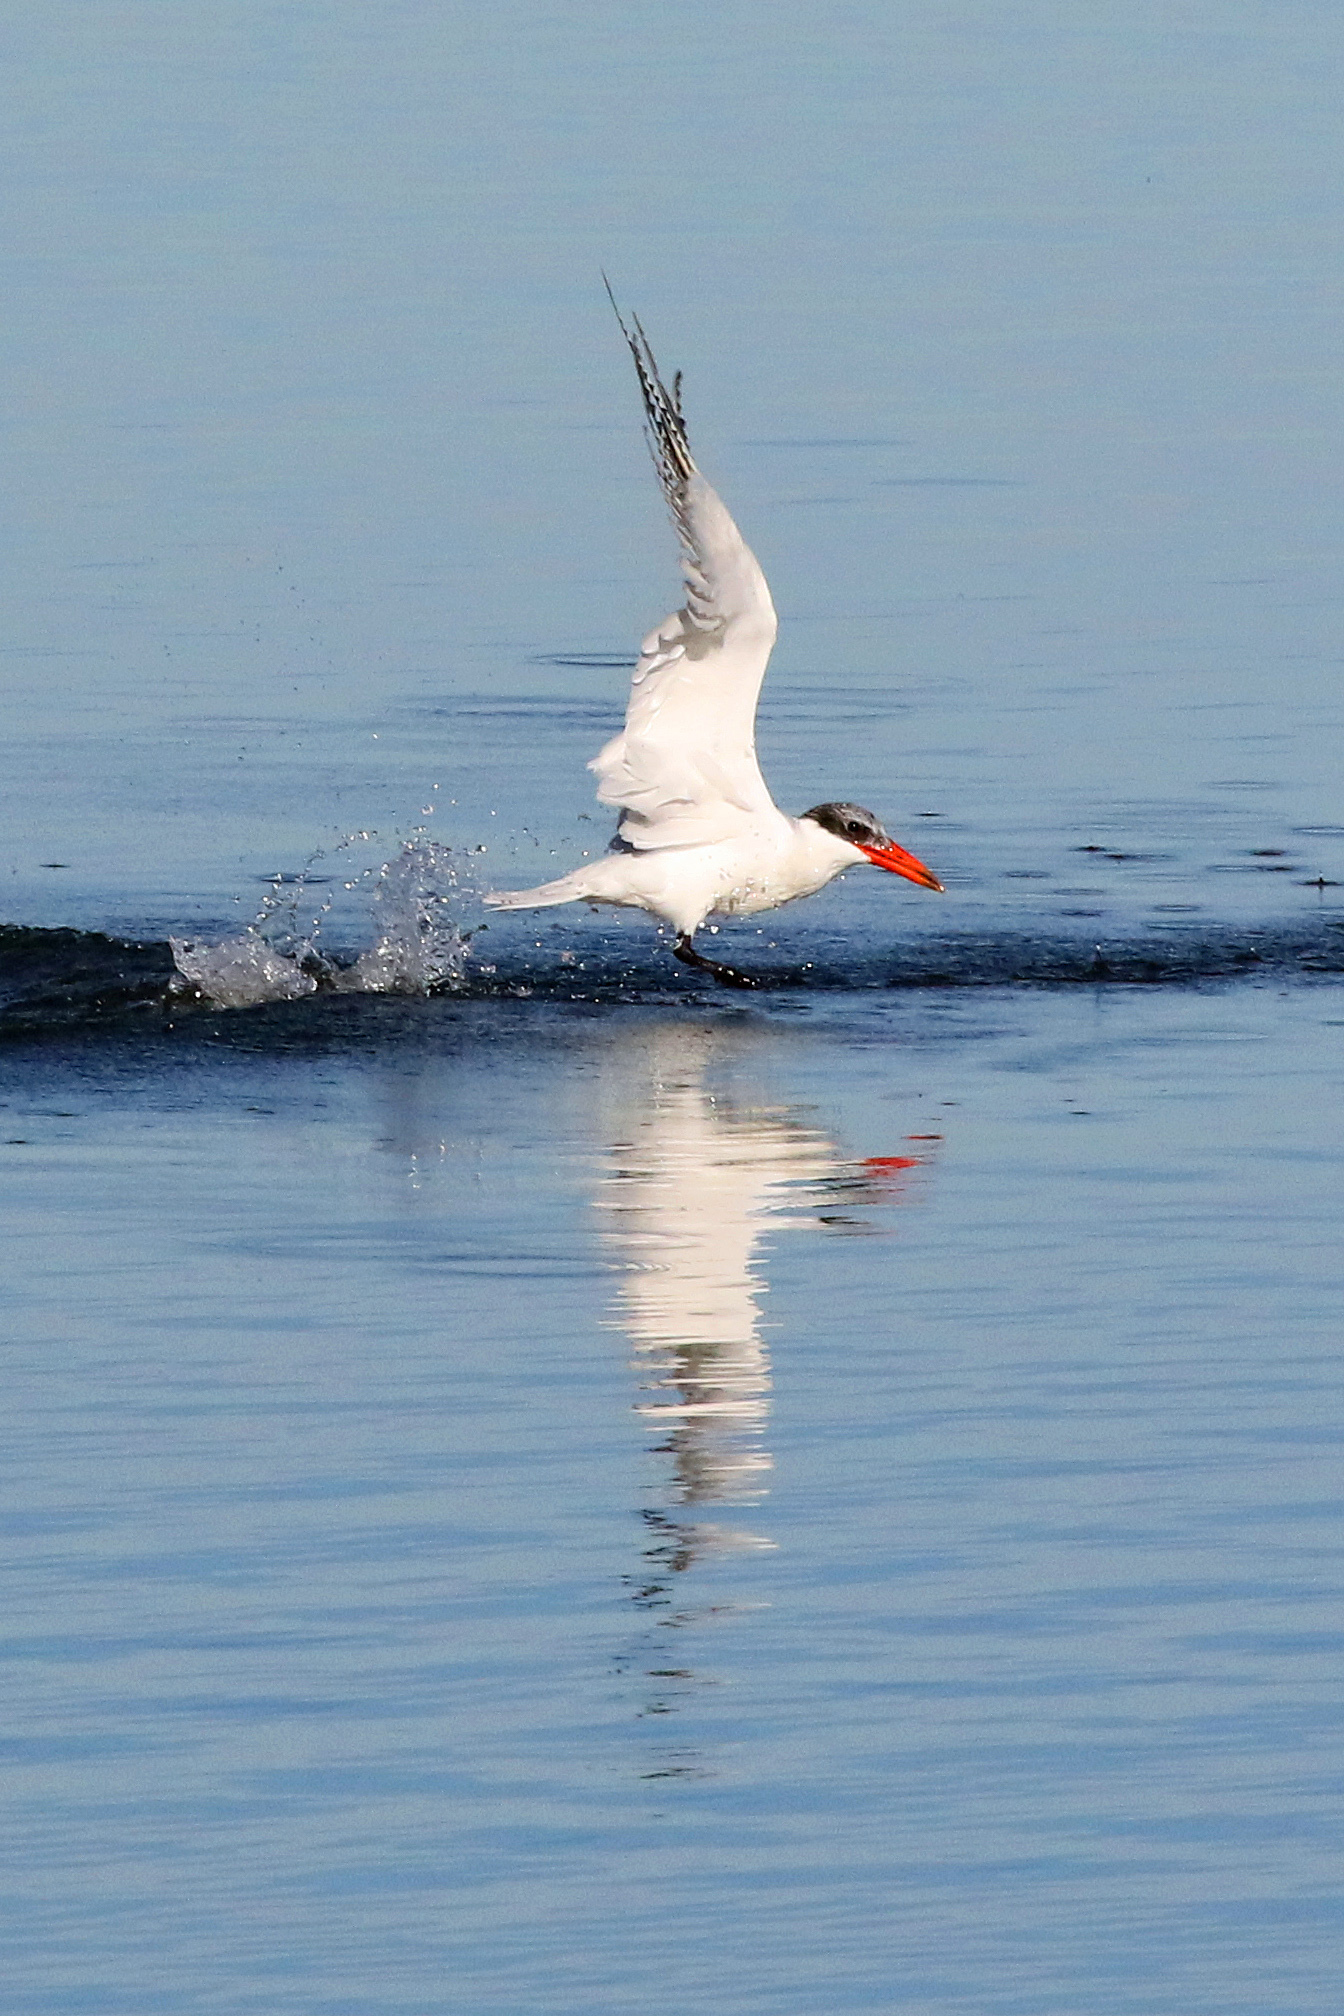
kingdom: Animalia
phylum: Chordata
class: Aves
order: Charadriiformes
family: Laridae
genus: Hydroprogne
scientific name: Hydroprogne caspia
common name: Caspian tern
